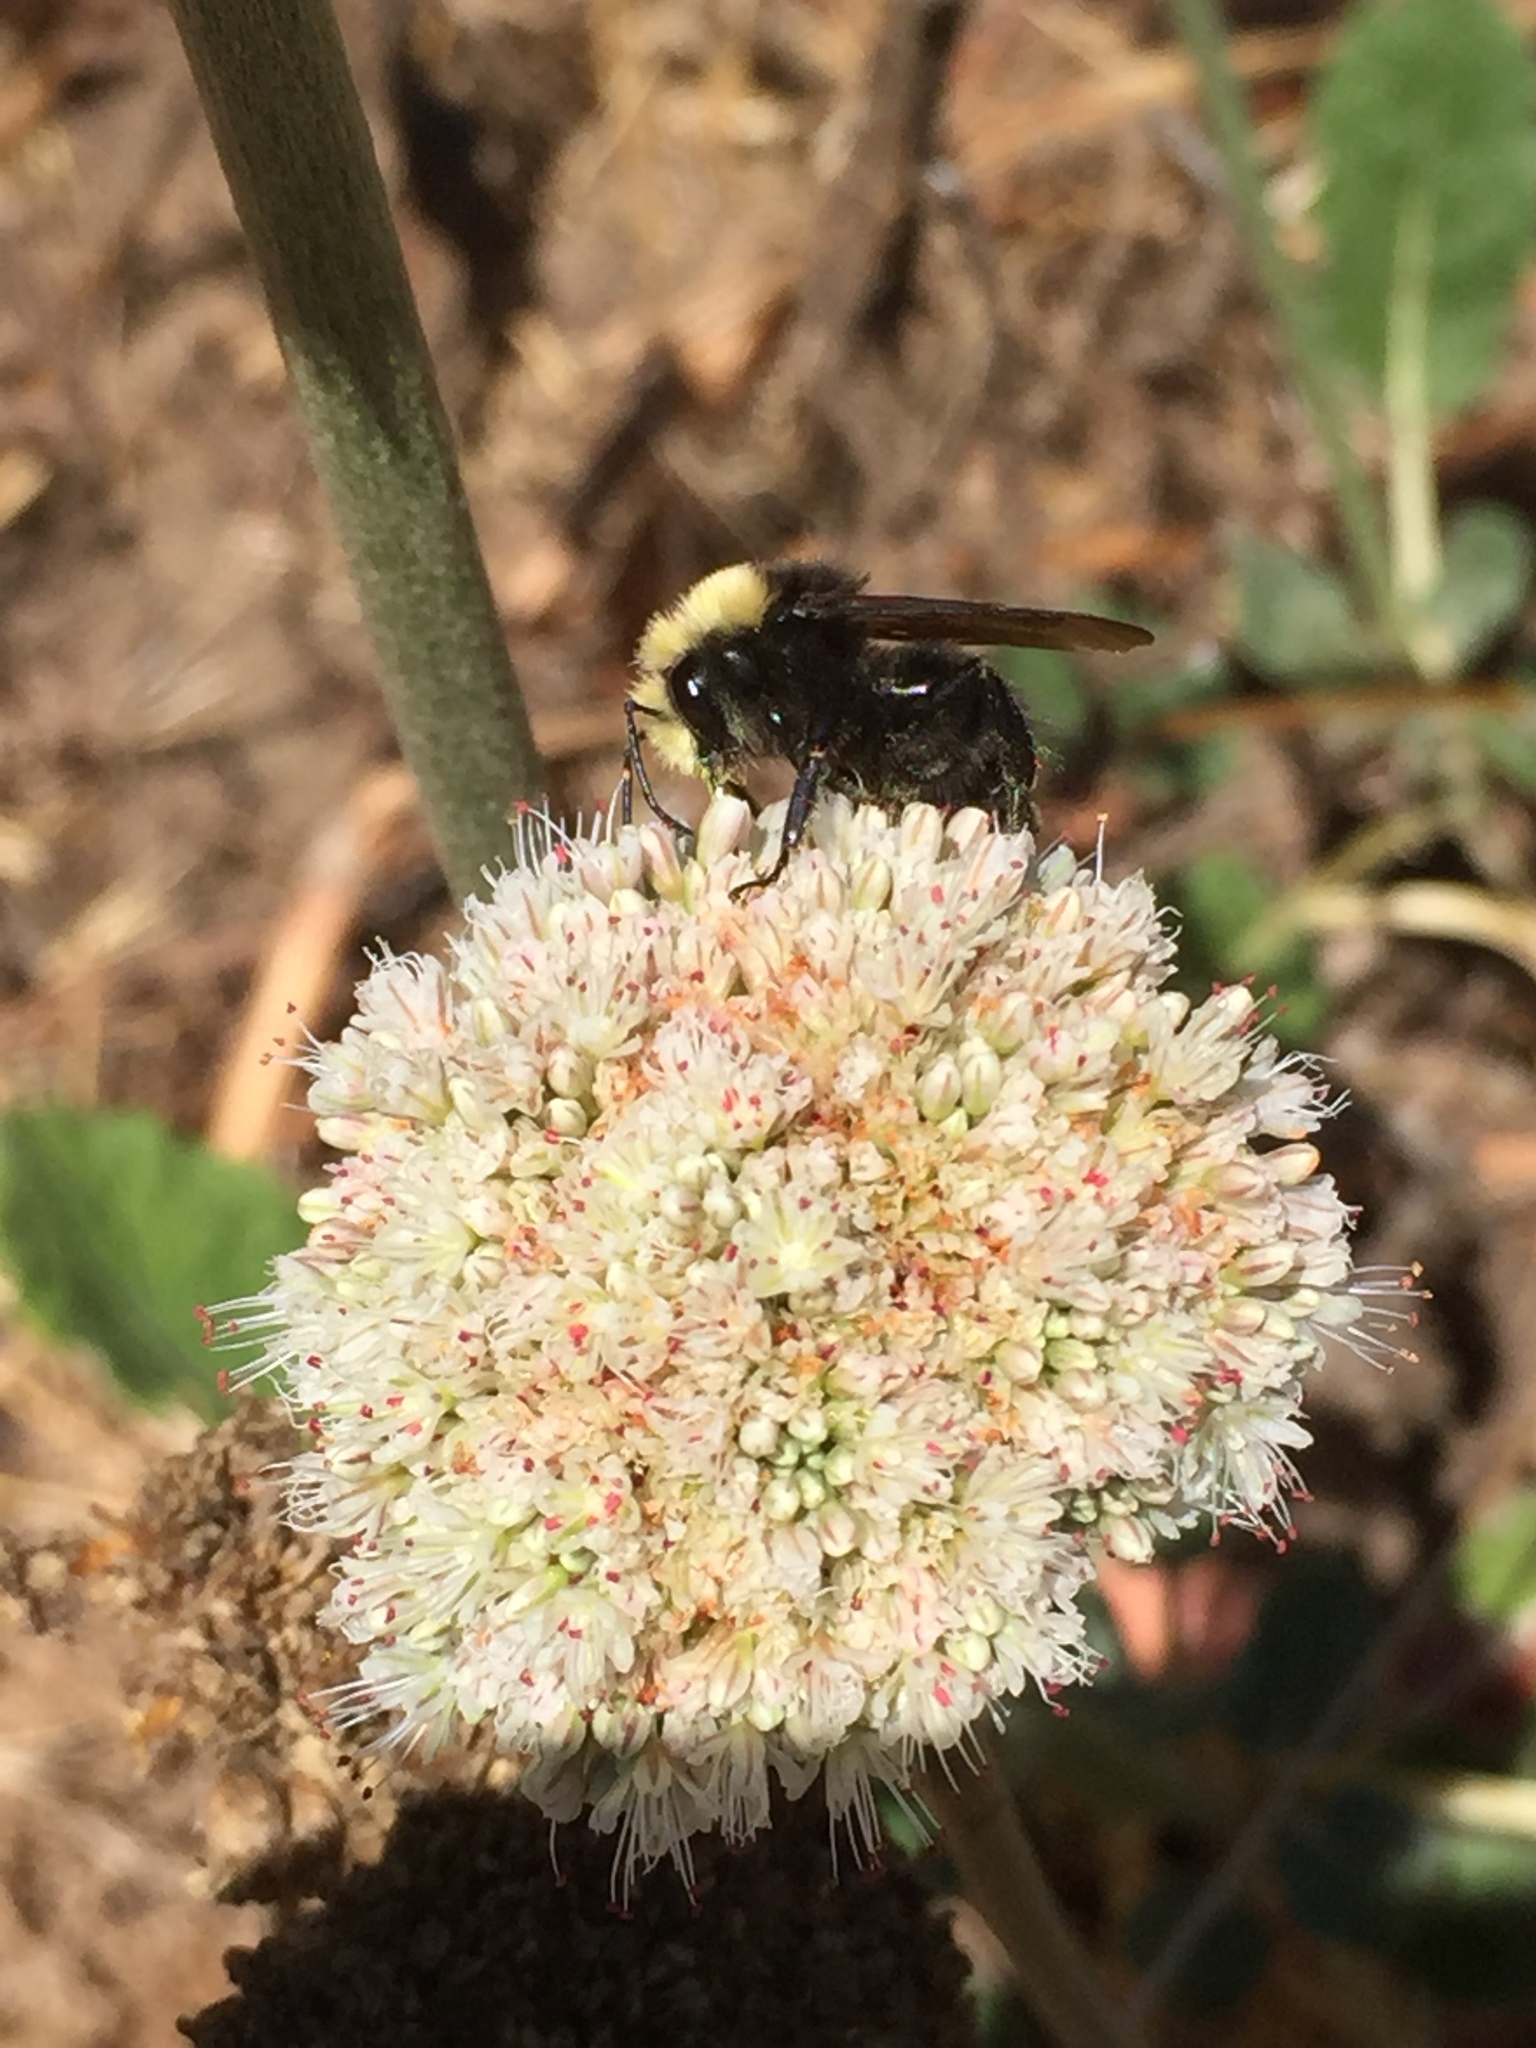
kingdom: Animalia
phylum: Arthropoda
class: Insecta
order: Hymenoptera
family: Apidae
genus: Bombus
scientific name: Bombus vosnesenskii
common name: Vosnesensky bumble bee
